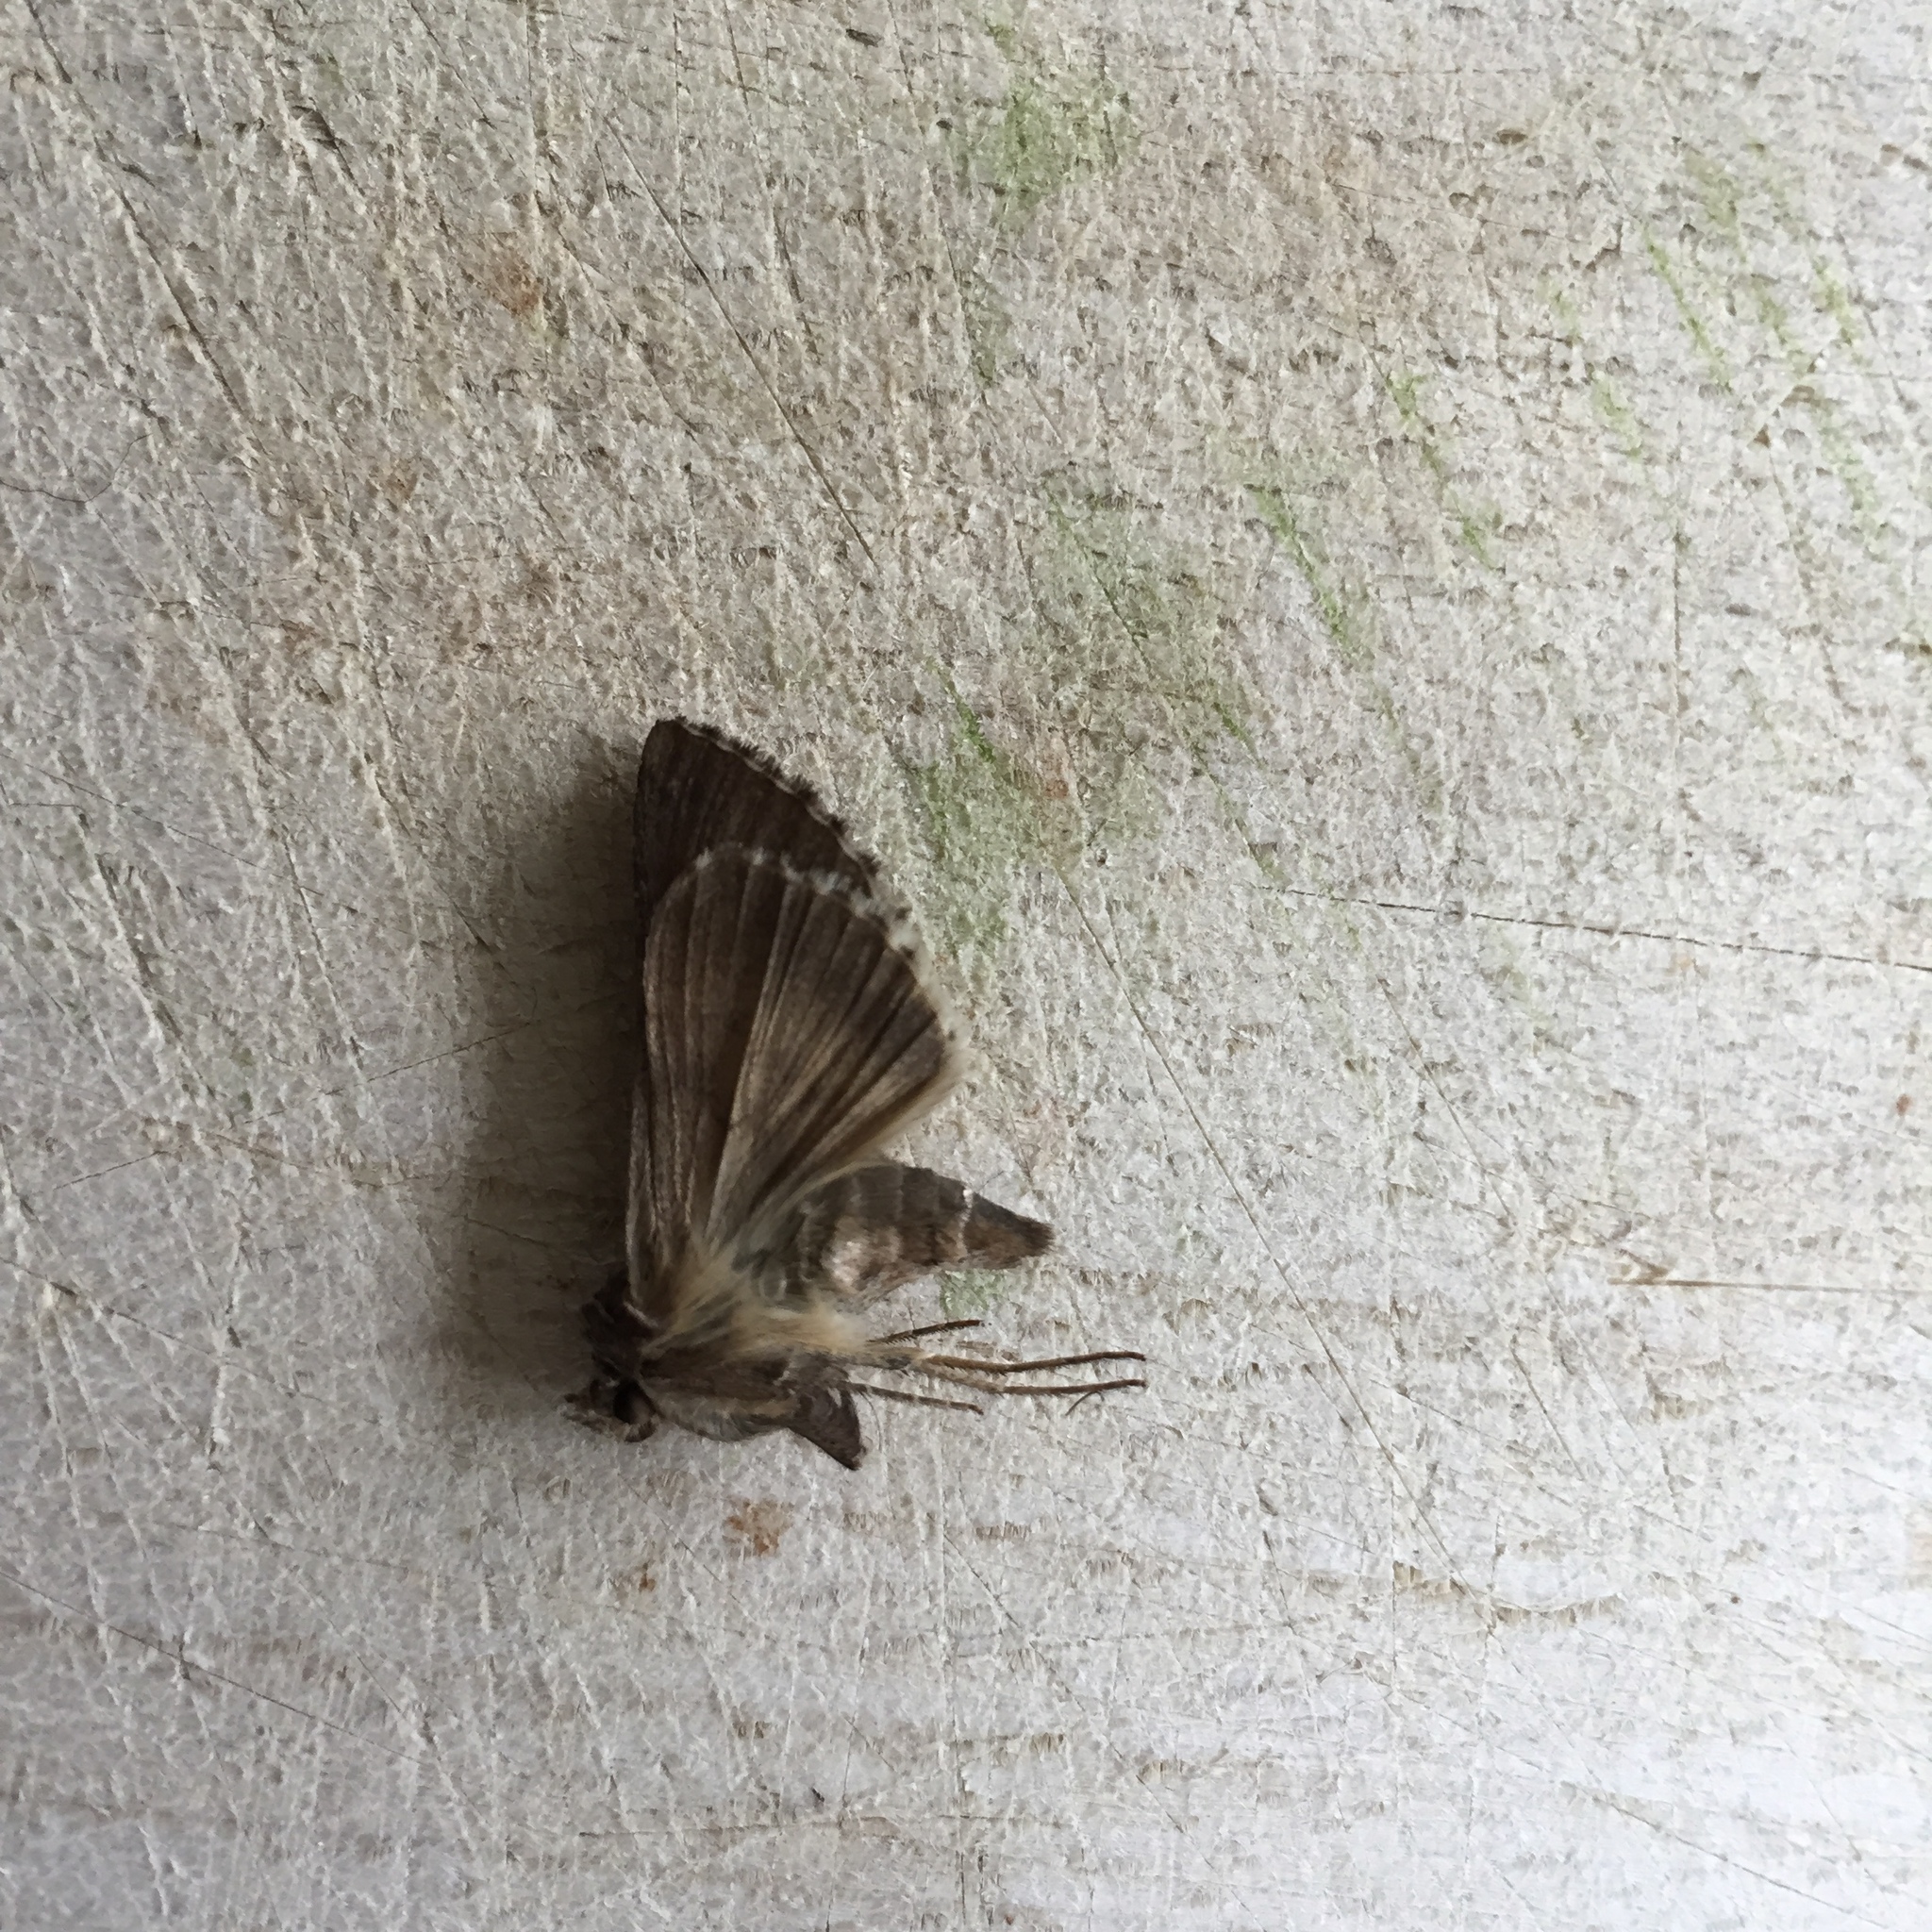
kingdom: Animalia
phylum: Arthropoda
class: Insecta
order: Lepidoptera
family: Noctuidae
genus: Autographa
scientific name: Autographa gamma
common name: Silver y
